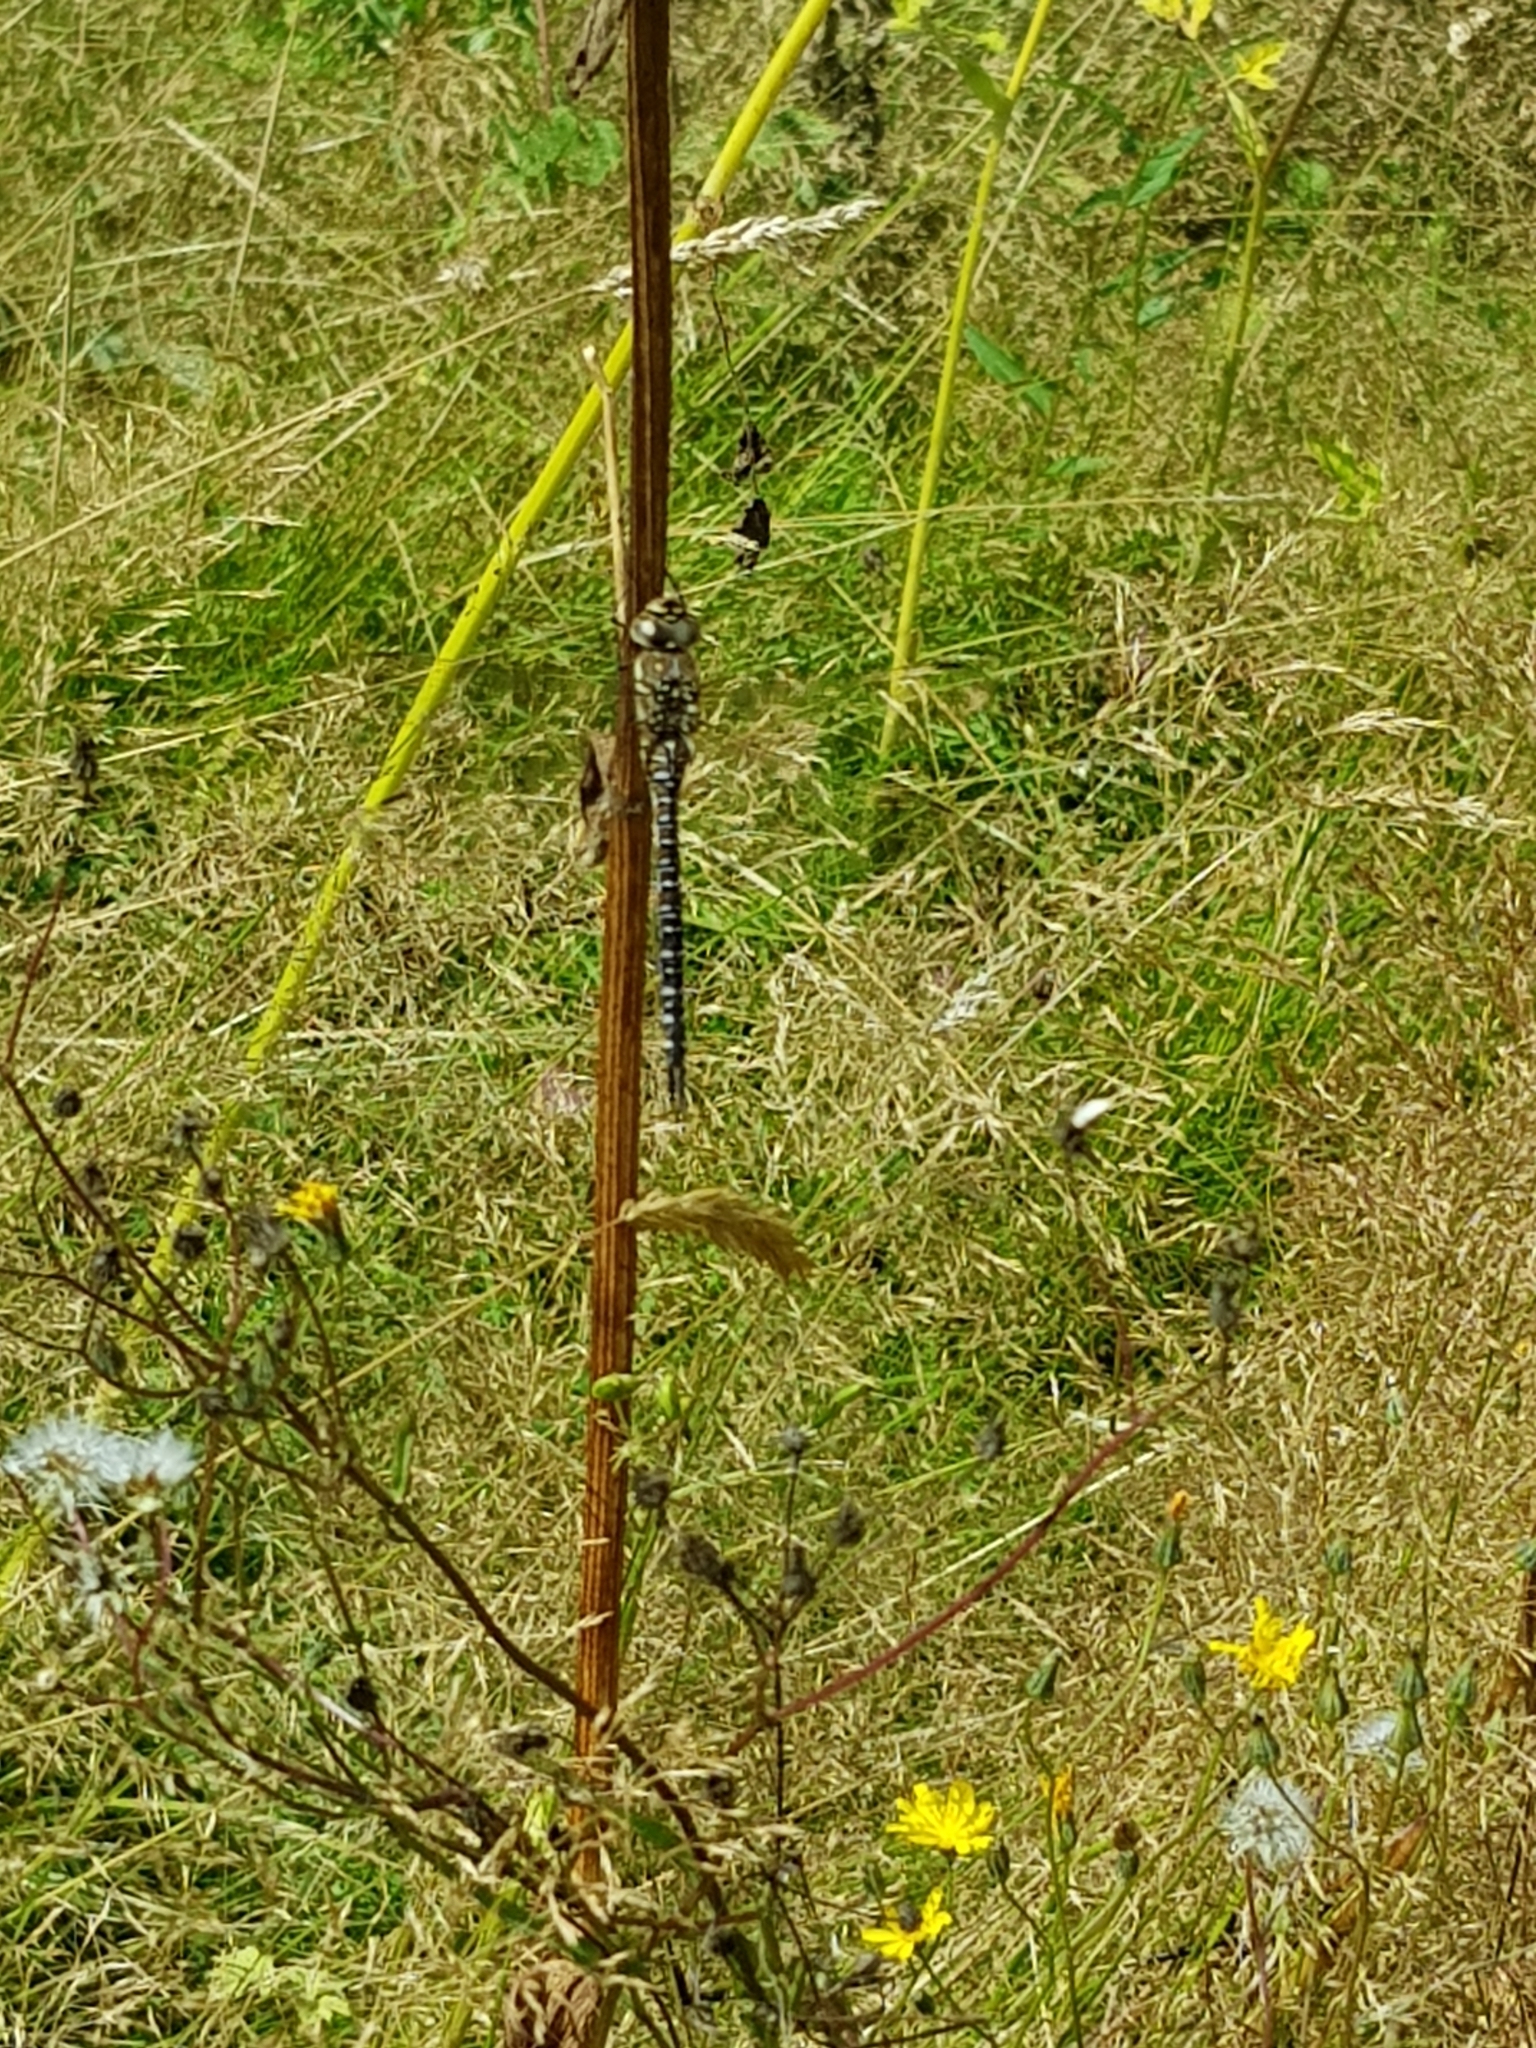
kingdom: Animalia
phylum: Arthropoda
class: Insecta
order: Odonata
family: Aeshnidae
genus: Aeshna
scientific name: Aeshna mixta
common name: Migrant hawker
